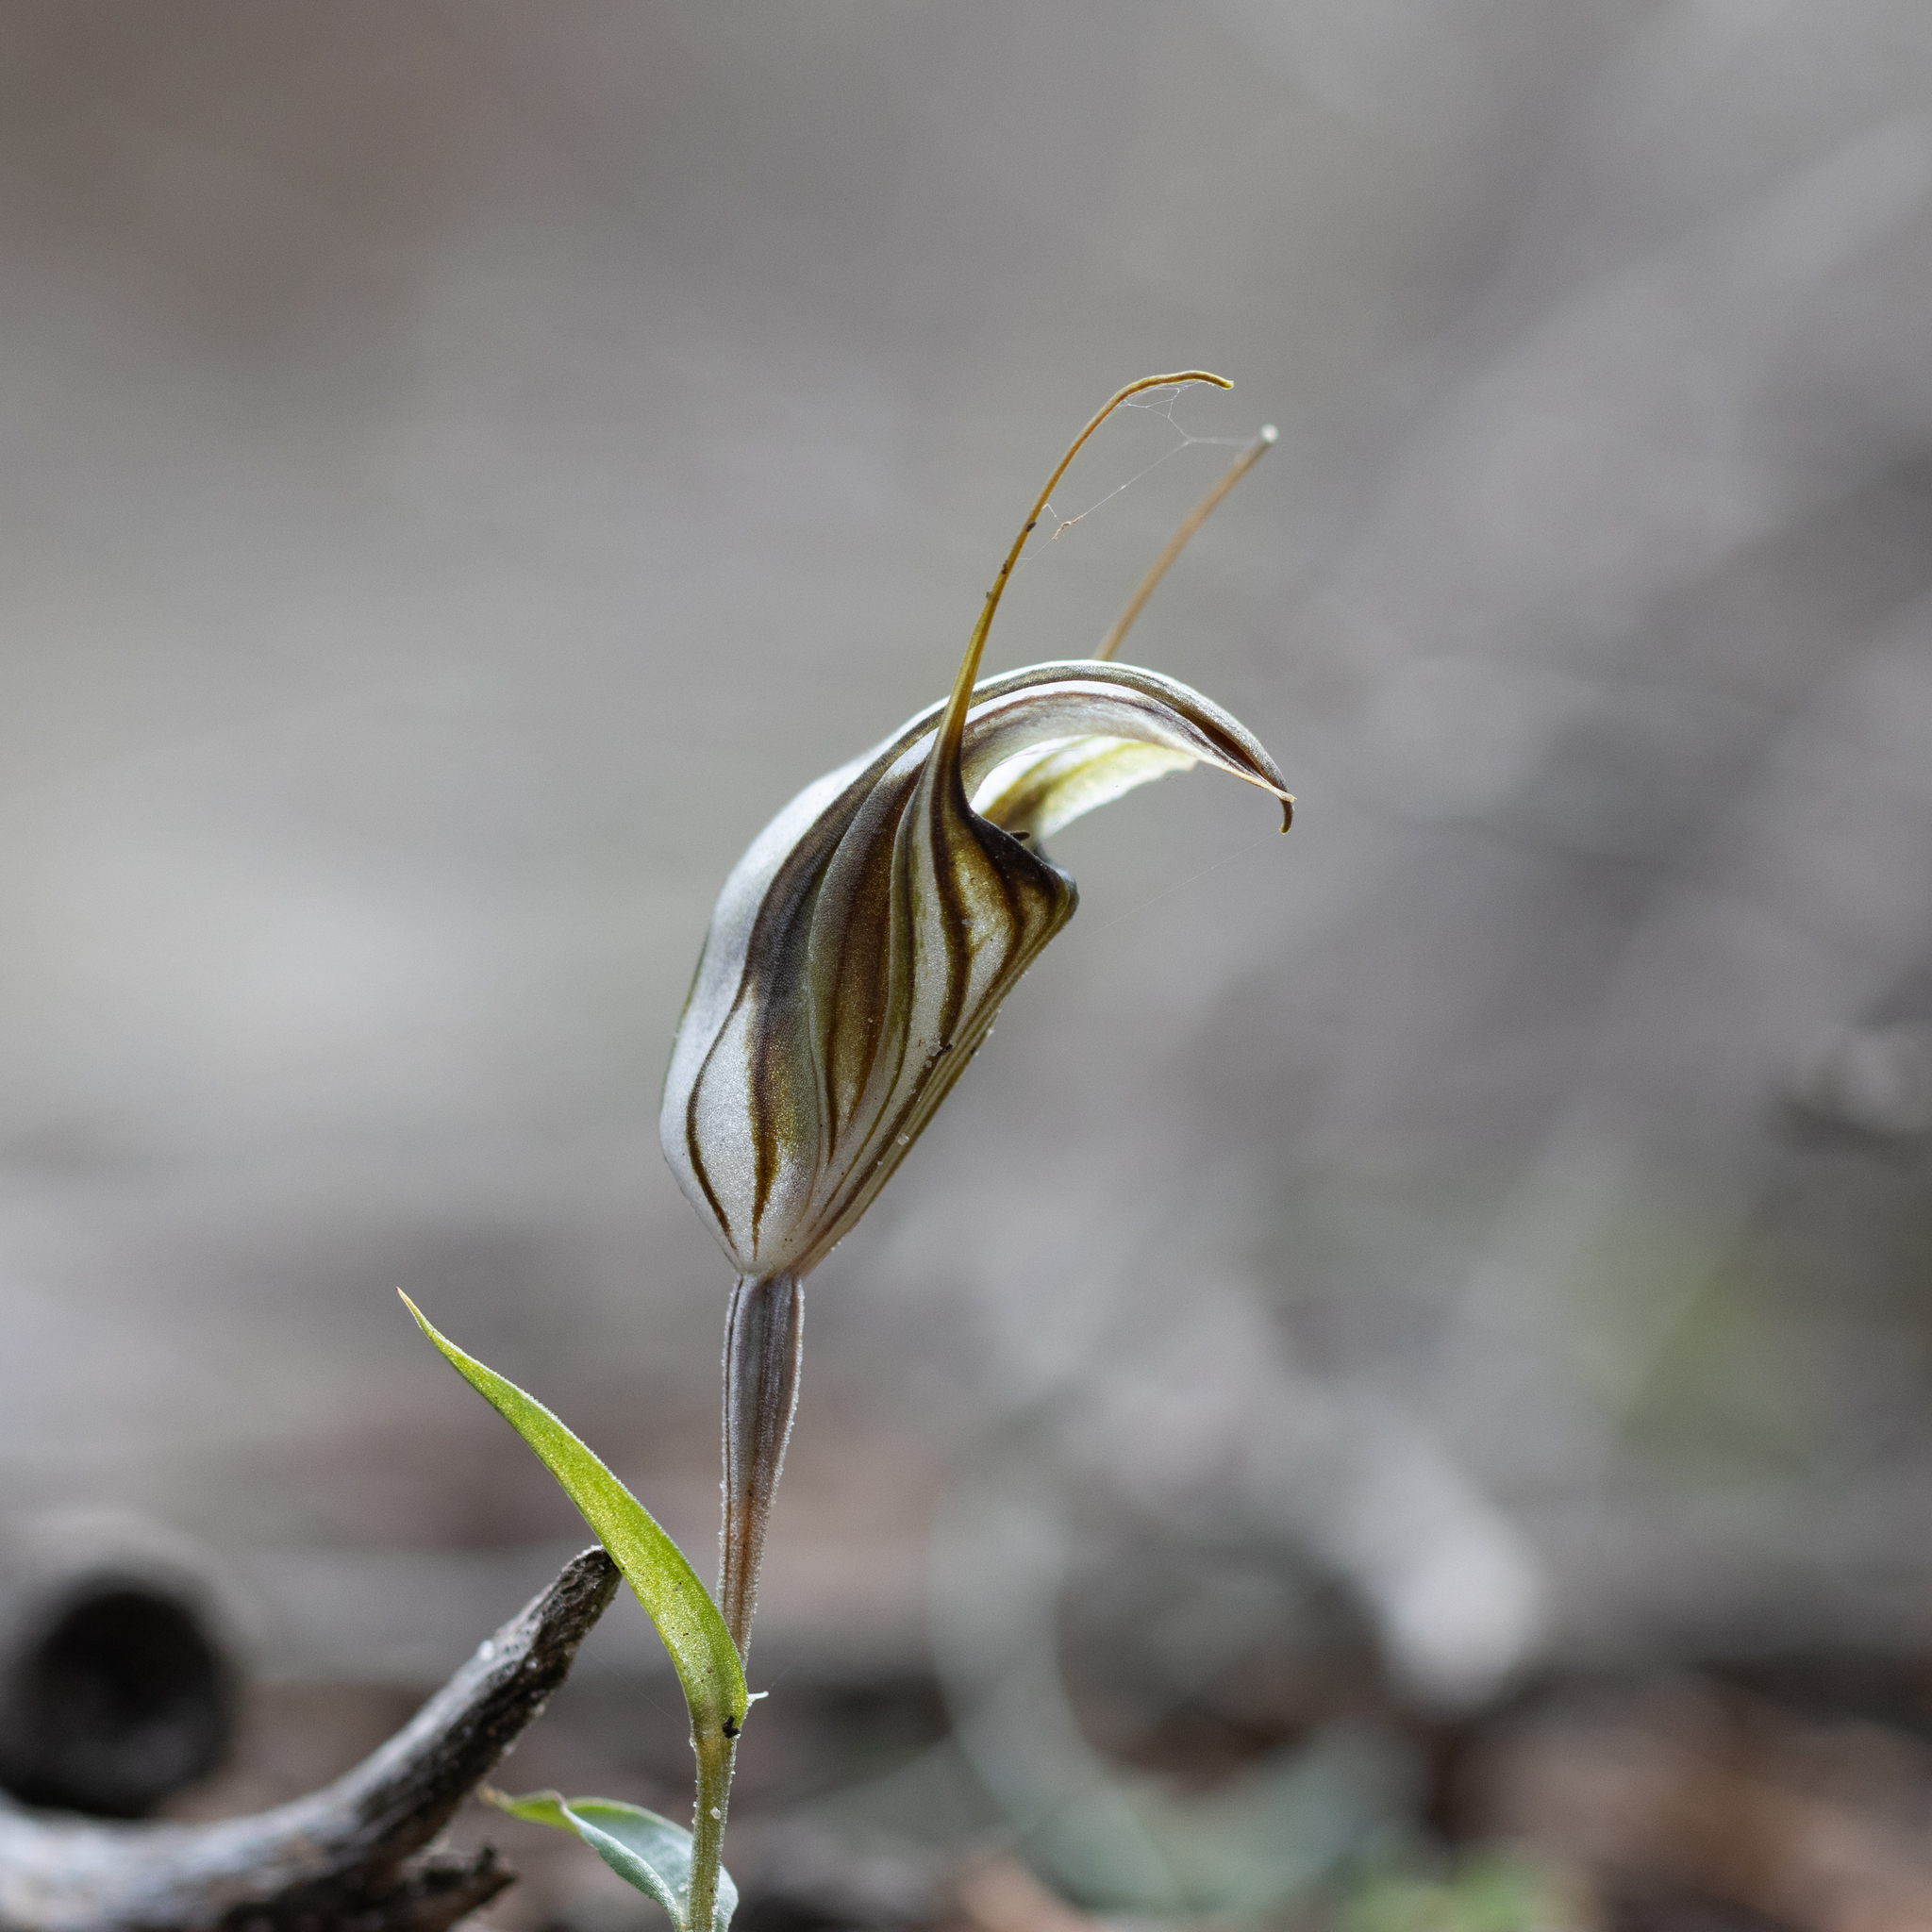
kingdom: Plantae
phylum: Tracheophyta
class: Liliopsida
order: Asparagales
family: Orchidaceae
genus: Pterostylis
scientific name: Pterostylis dolichochila
